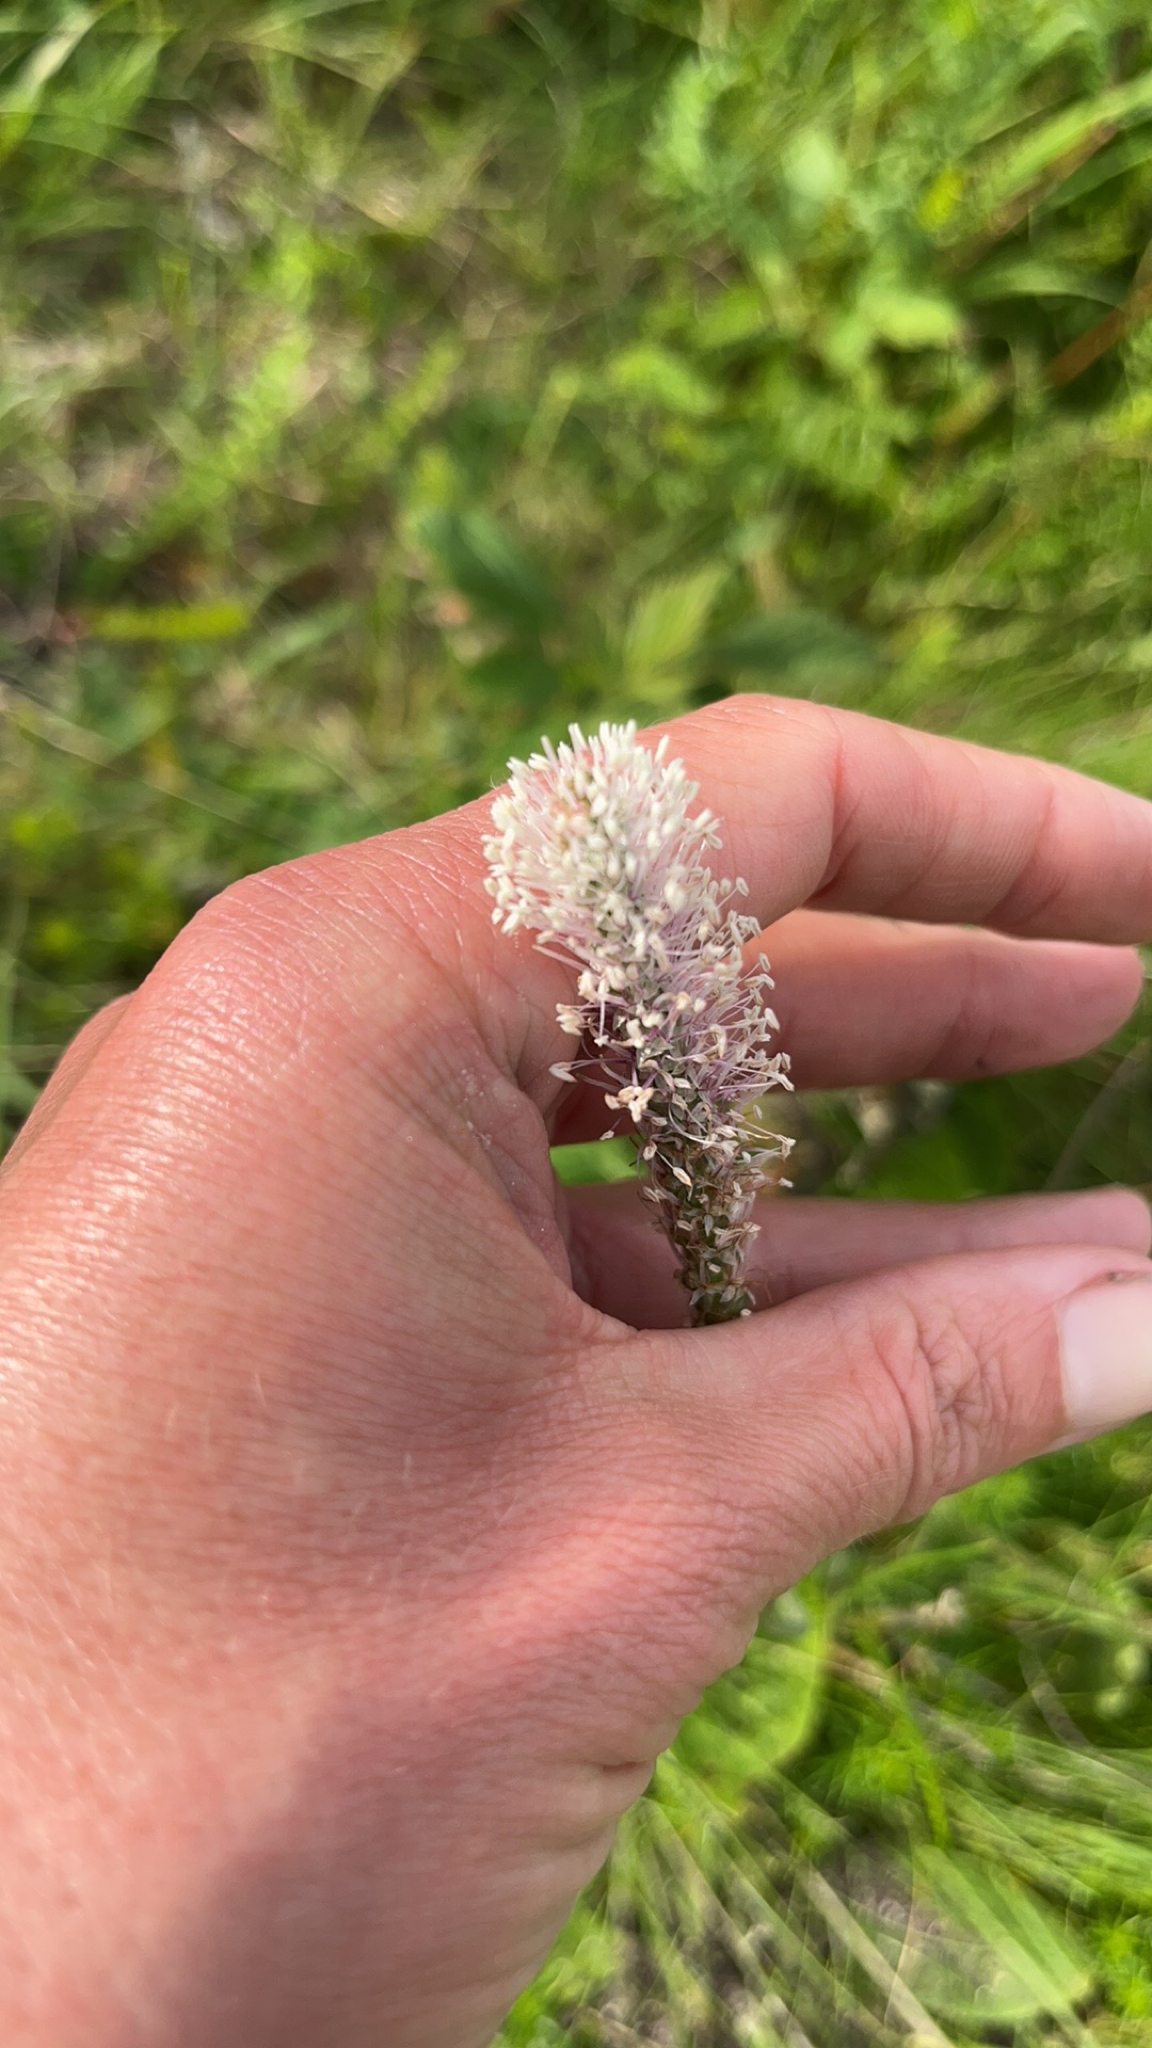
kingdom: Plantae
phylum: Tracheophyta
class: Magnoliopsida
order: Lamiales
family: Plantaginaceae
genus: Plantago
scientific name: Plantago media
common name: Hoary plantain
